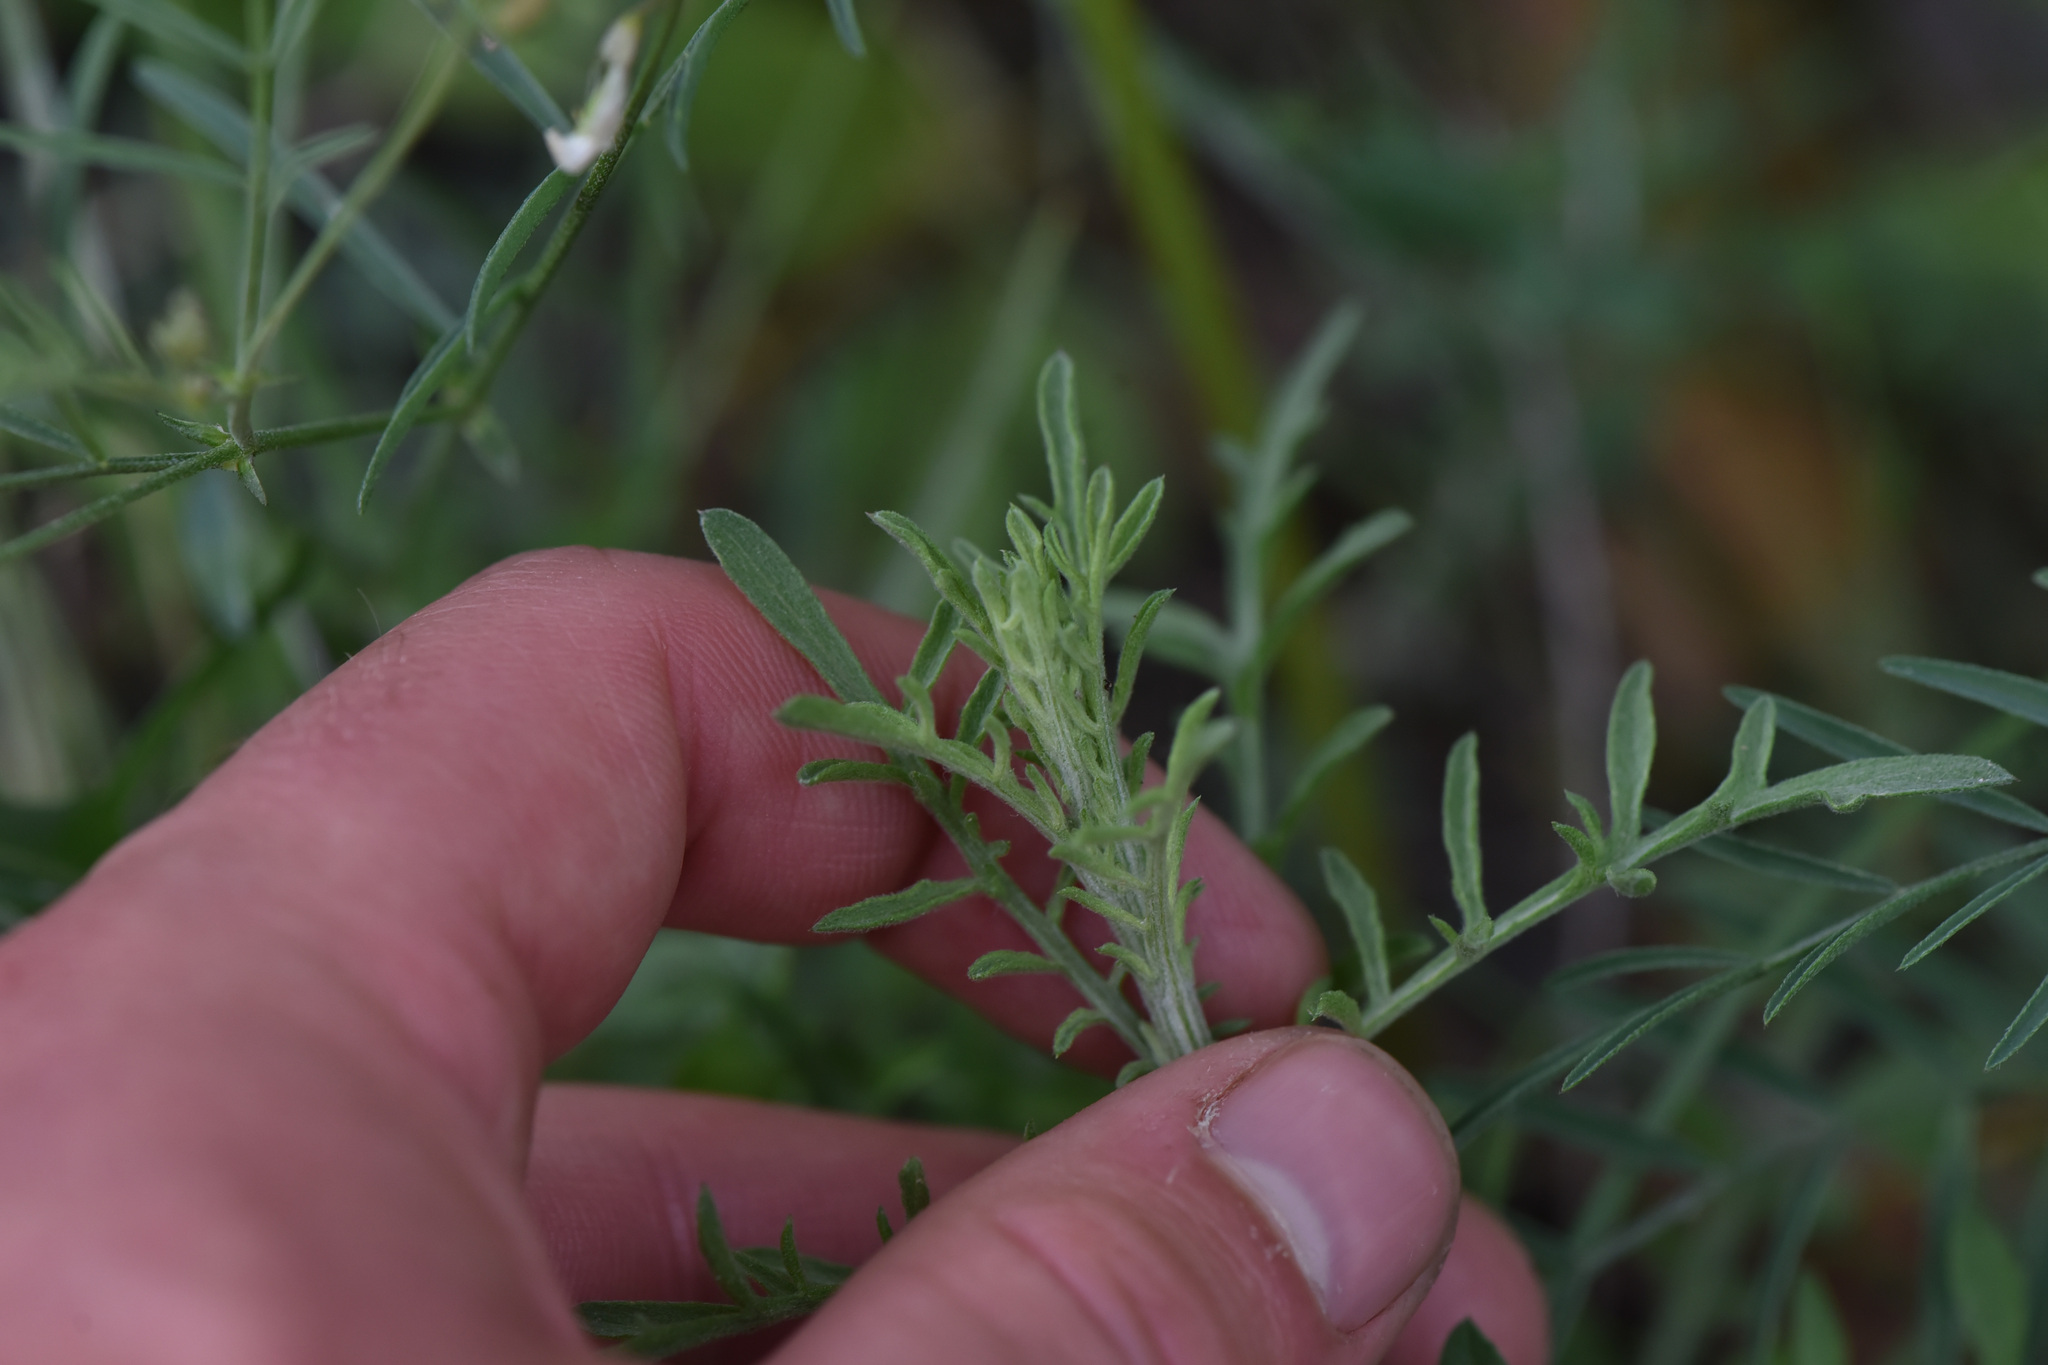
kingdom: Plantae
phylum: Tracheophyta
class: Magnoliopsida
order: Asterales
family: Asteraceae
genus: Centaurea
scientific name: Centaurea diffusa
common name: Diffuse knapweed
